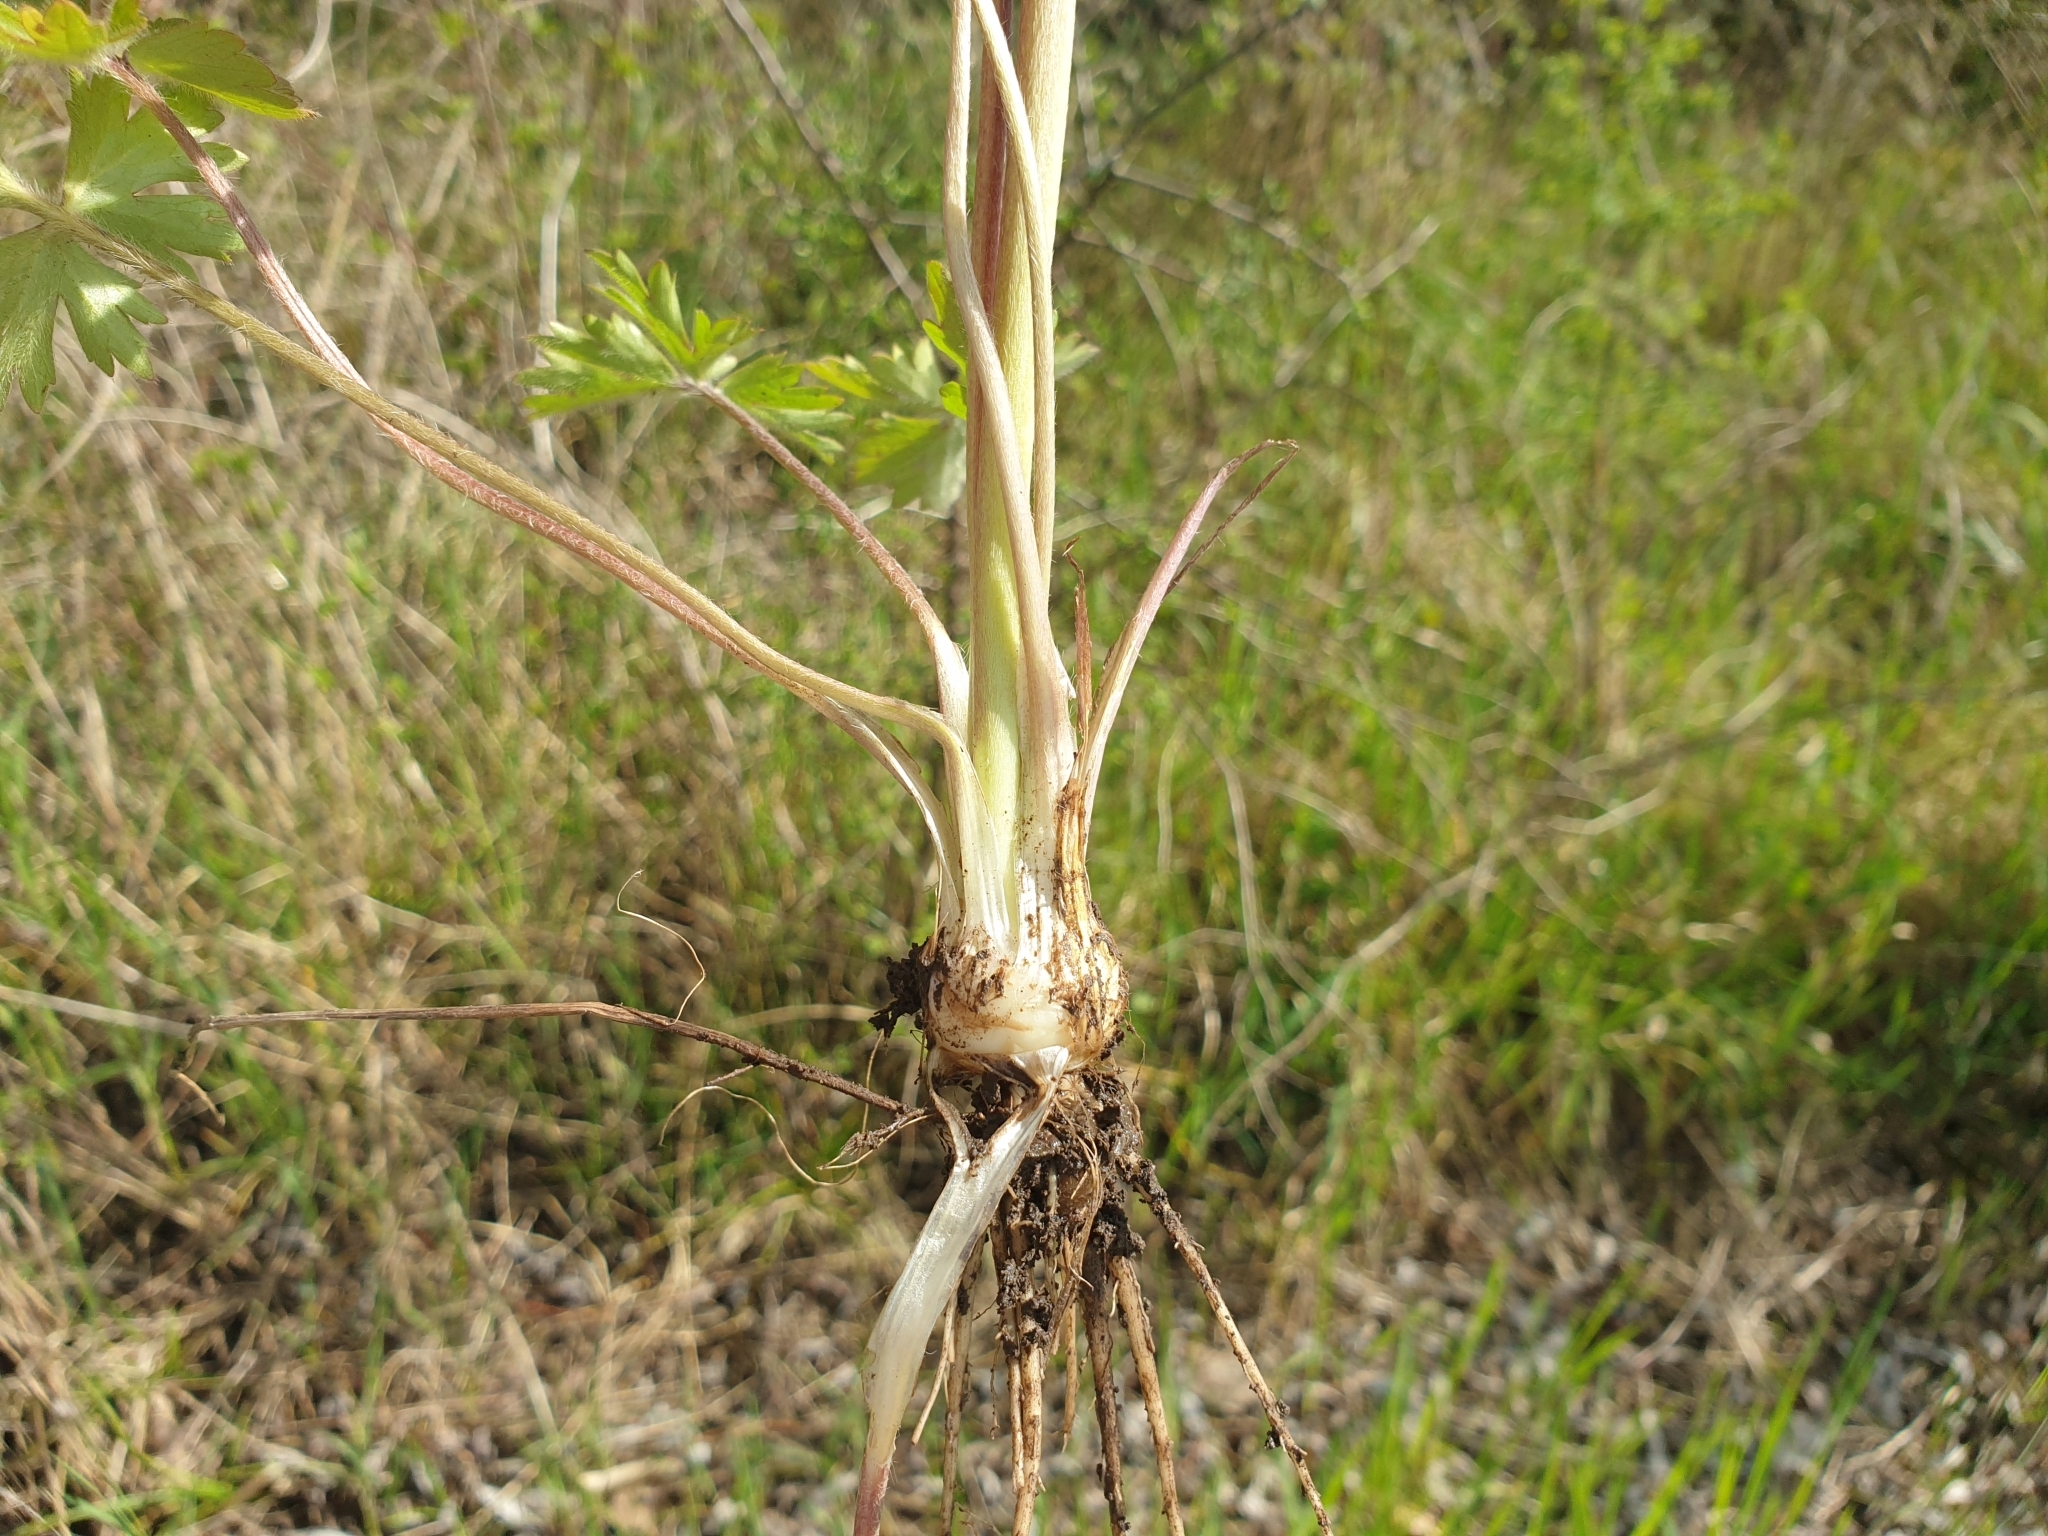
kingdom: Plantae
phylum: Tracheophyta
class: Magnoliopsida
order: Ranunculales
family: Ranunculaceae
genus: Ranunculus
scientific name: Ranunculus bulbosus
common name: Bulbous buttercup
